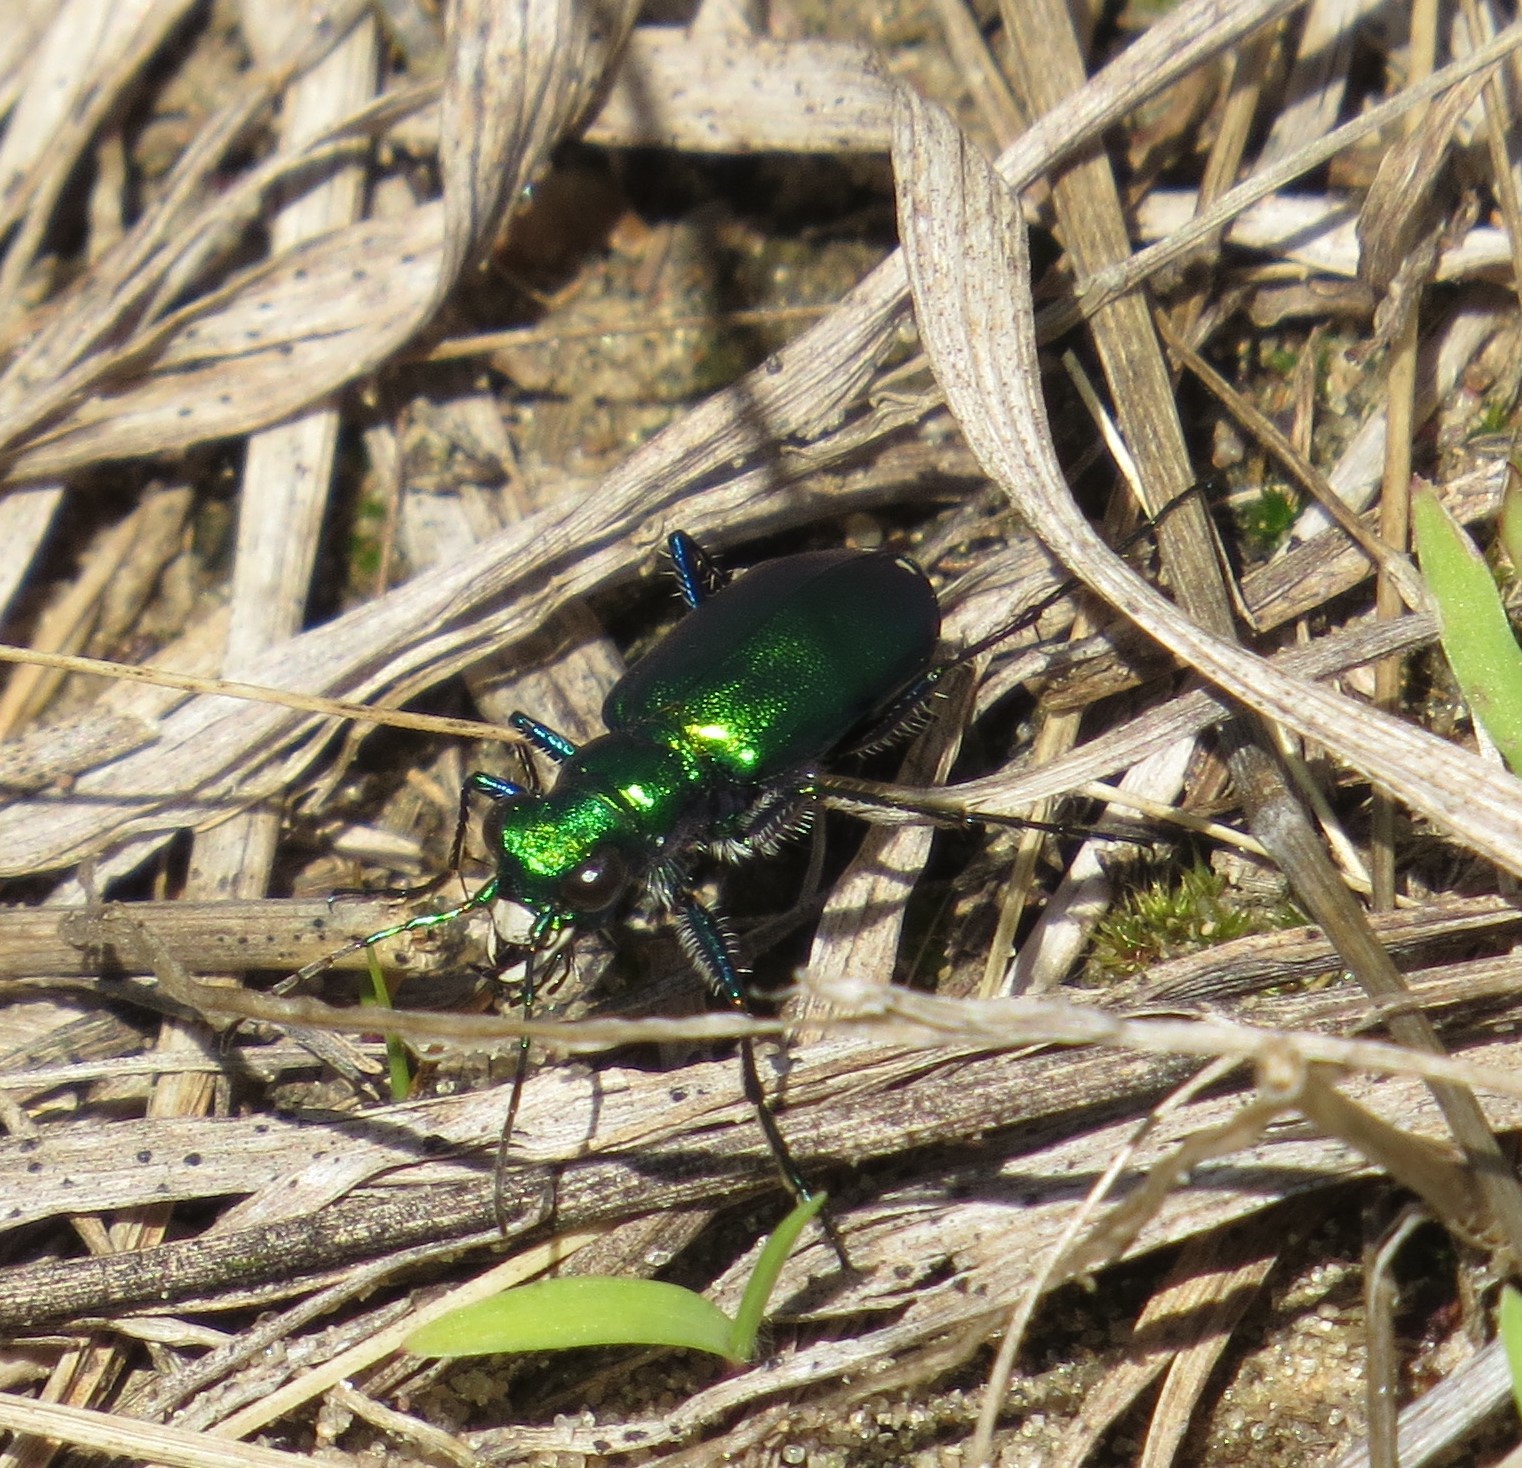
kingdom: Animalia
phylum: Arthropoda
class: Insecta
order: Coleoptera
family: Carabidae
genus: Cicindela
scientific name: Cicindela sexguttata
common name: Six-spotted tiger beetle
